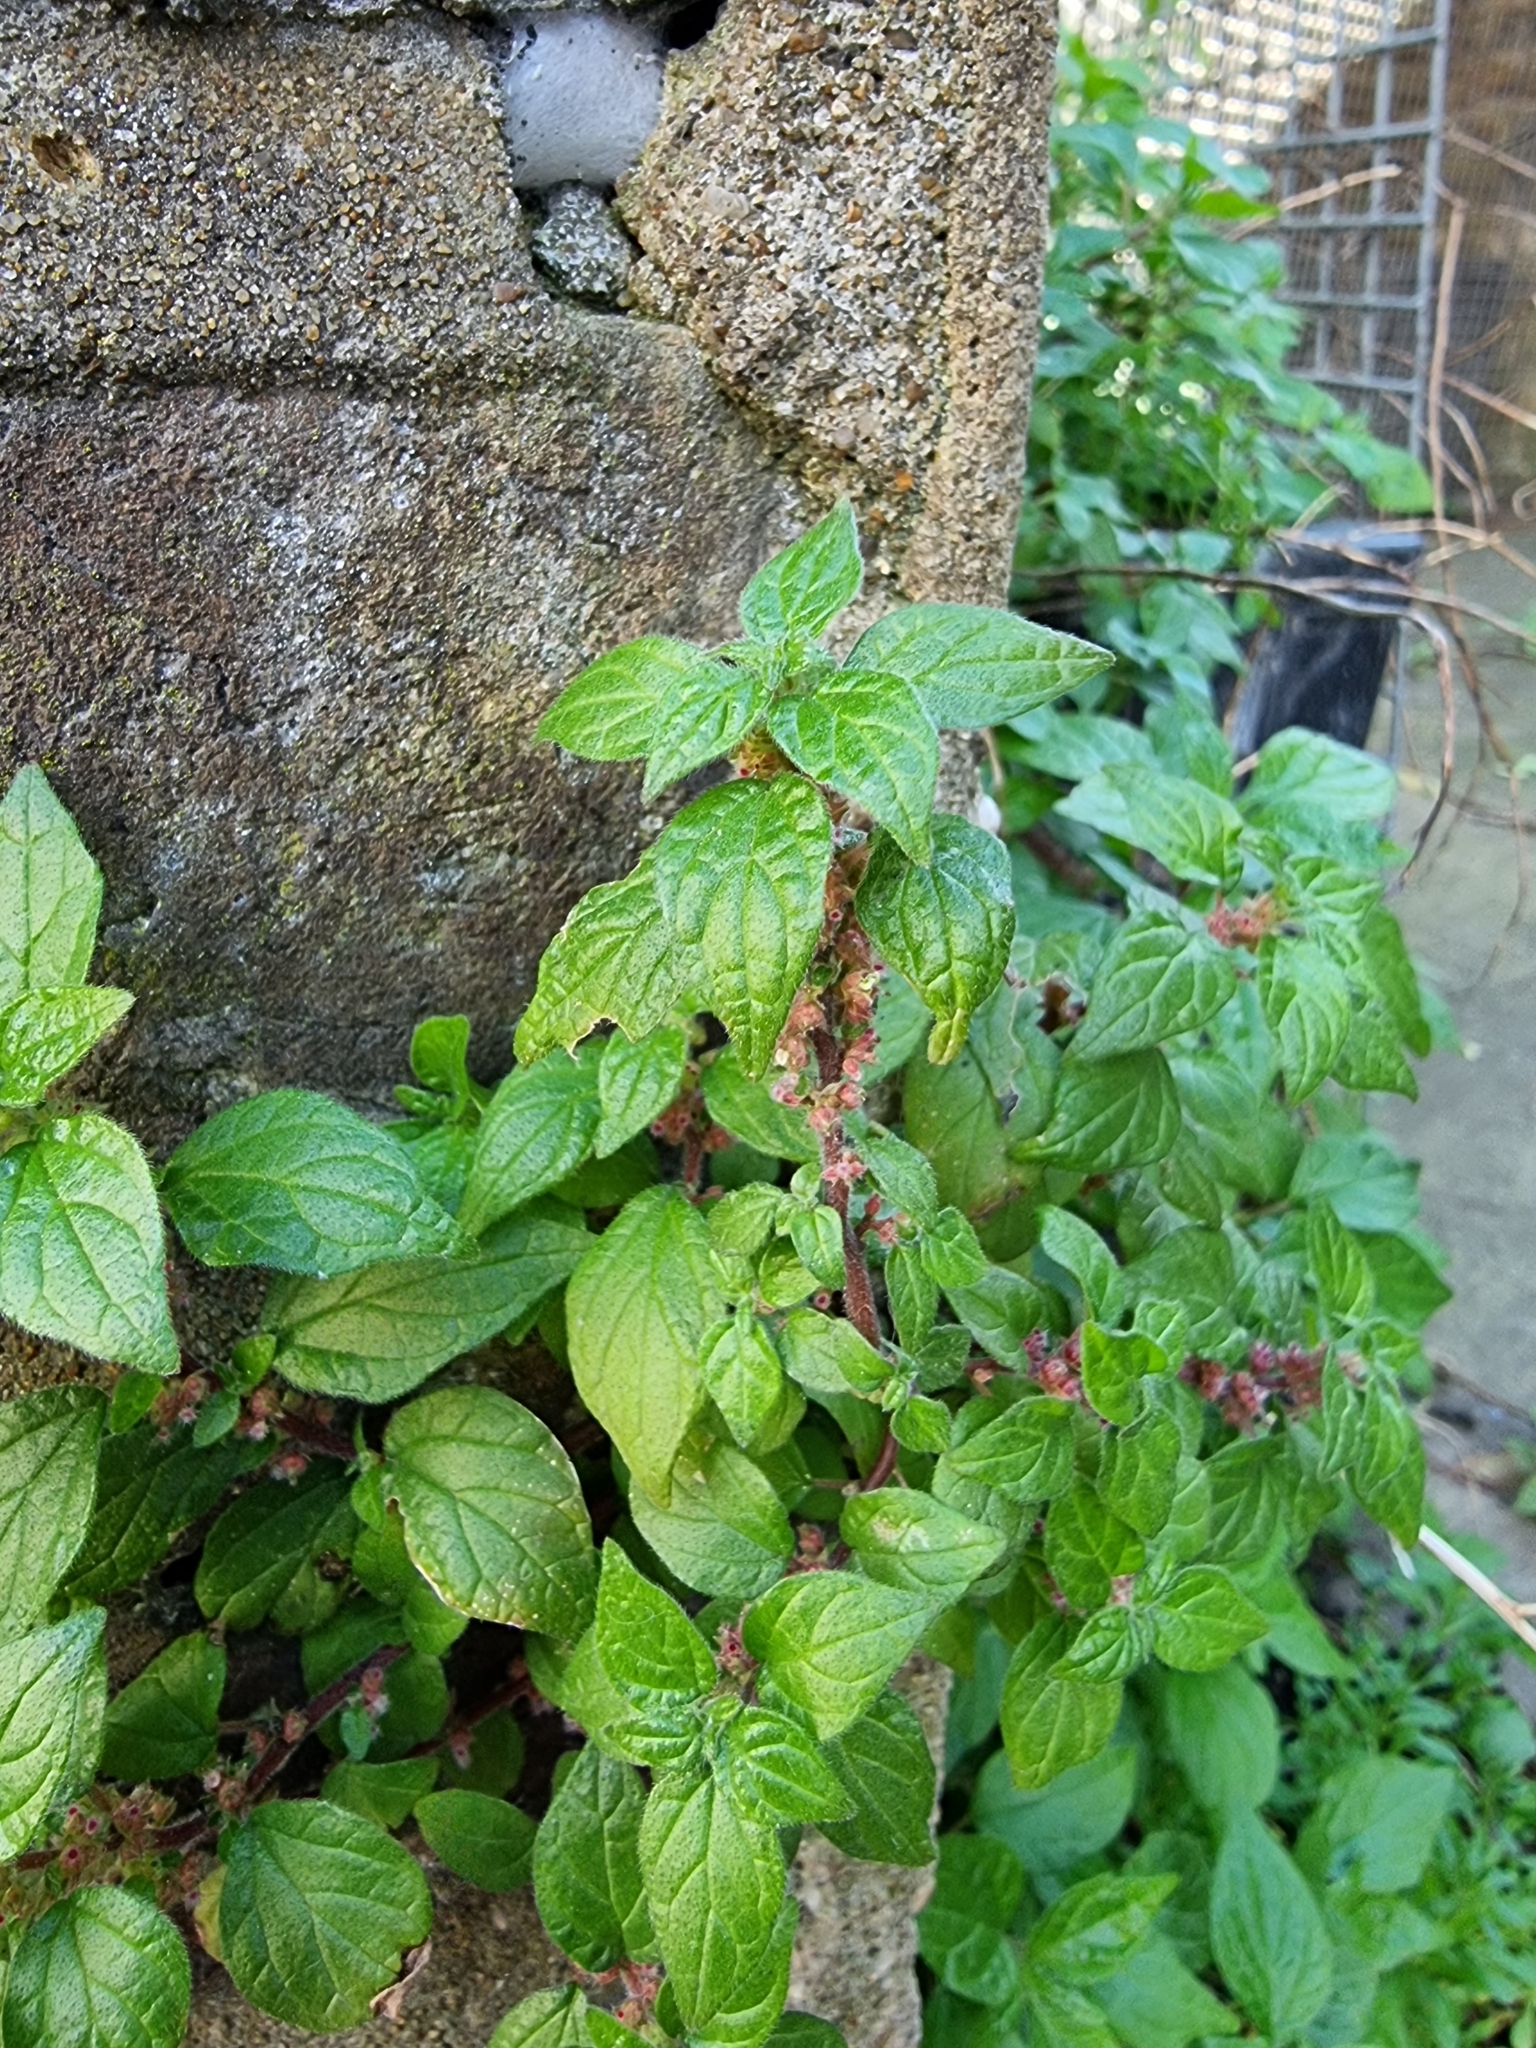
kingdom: Plantae
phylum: Tracheophyta
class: Magnoliopsida
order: Rosales
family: Urticaceae
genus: Parietaria
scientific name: Parietaria judaica
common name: Pellitory-of-the-wall
